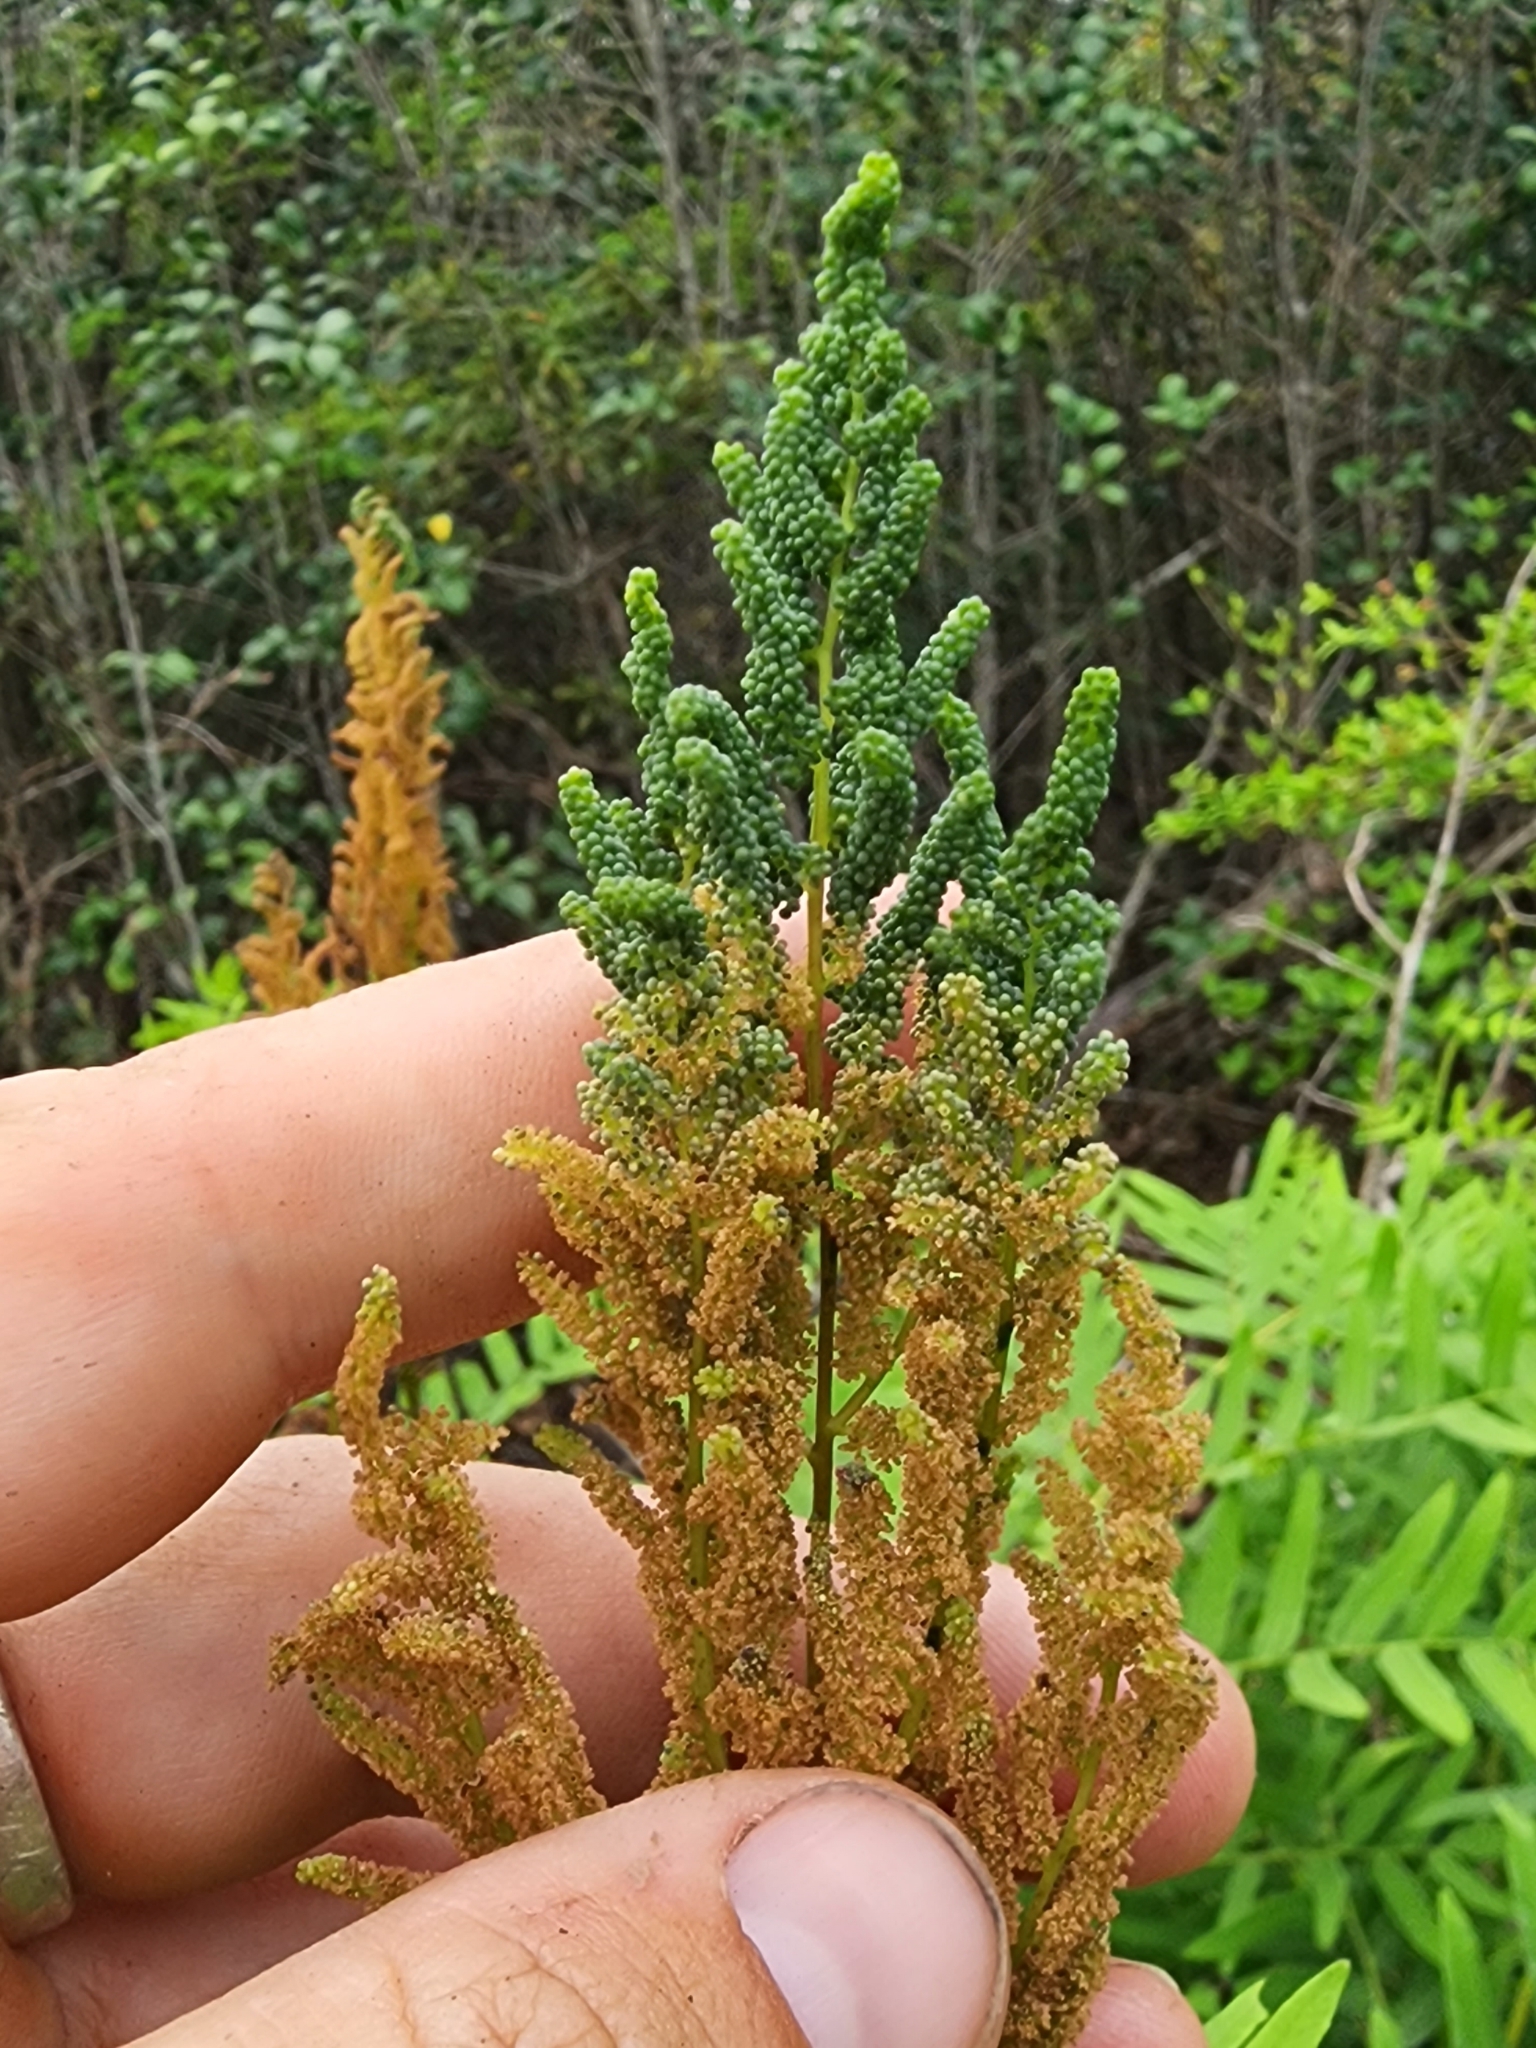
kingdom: Plantae
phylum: Tracheophyta
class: Polypodiopsida
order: Osmundales
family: Osmundaceae
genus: Osmunda
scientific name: Osmunda spectabilis
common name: American royal fern
